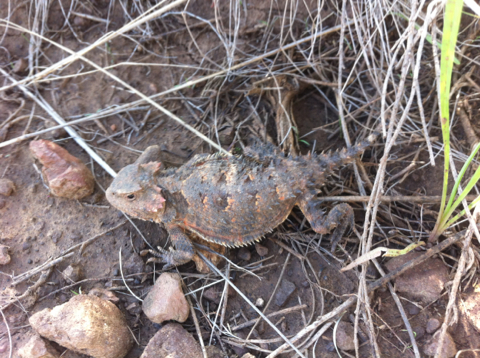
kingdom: Animalia
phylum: Chordata
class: Squamata
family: Phrynosomatidae
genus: Phrynosoma
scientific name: Phrynosoma hernandesi
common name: Greater short-horned lizard
